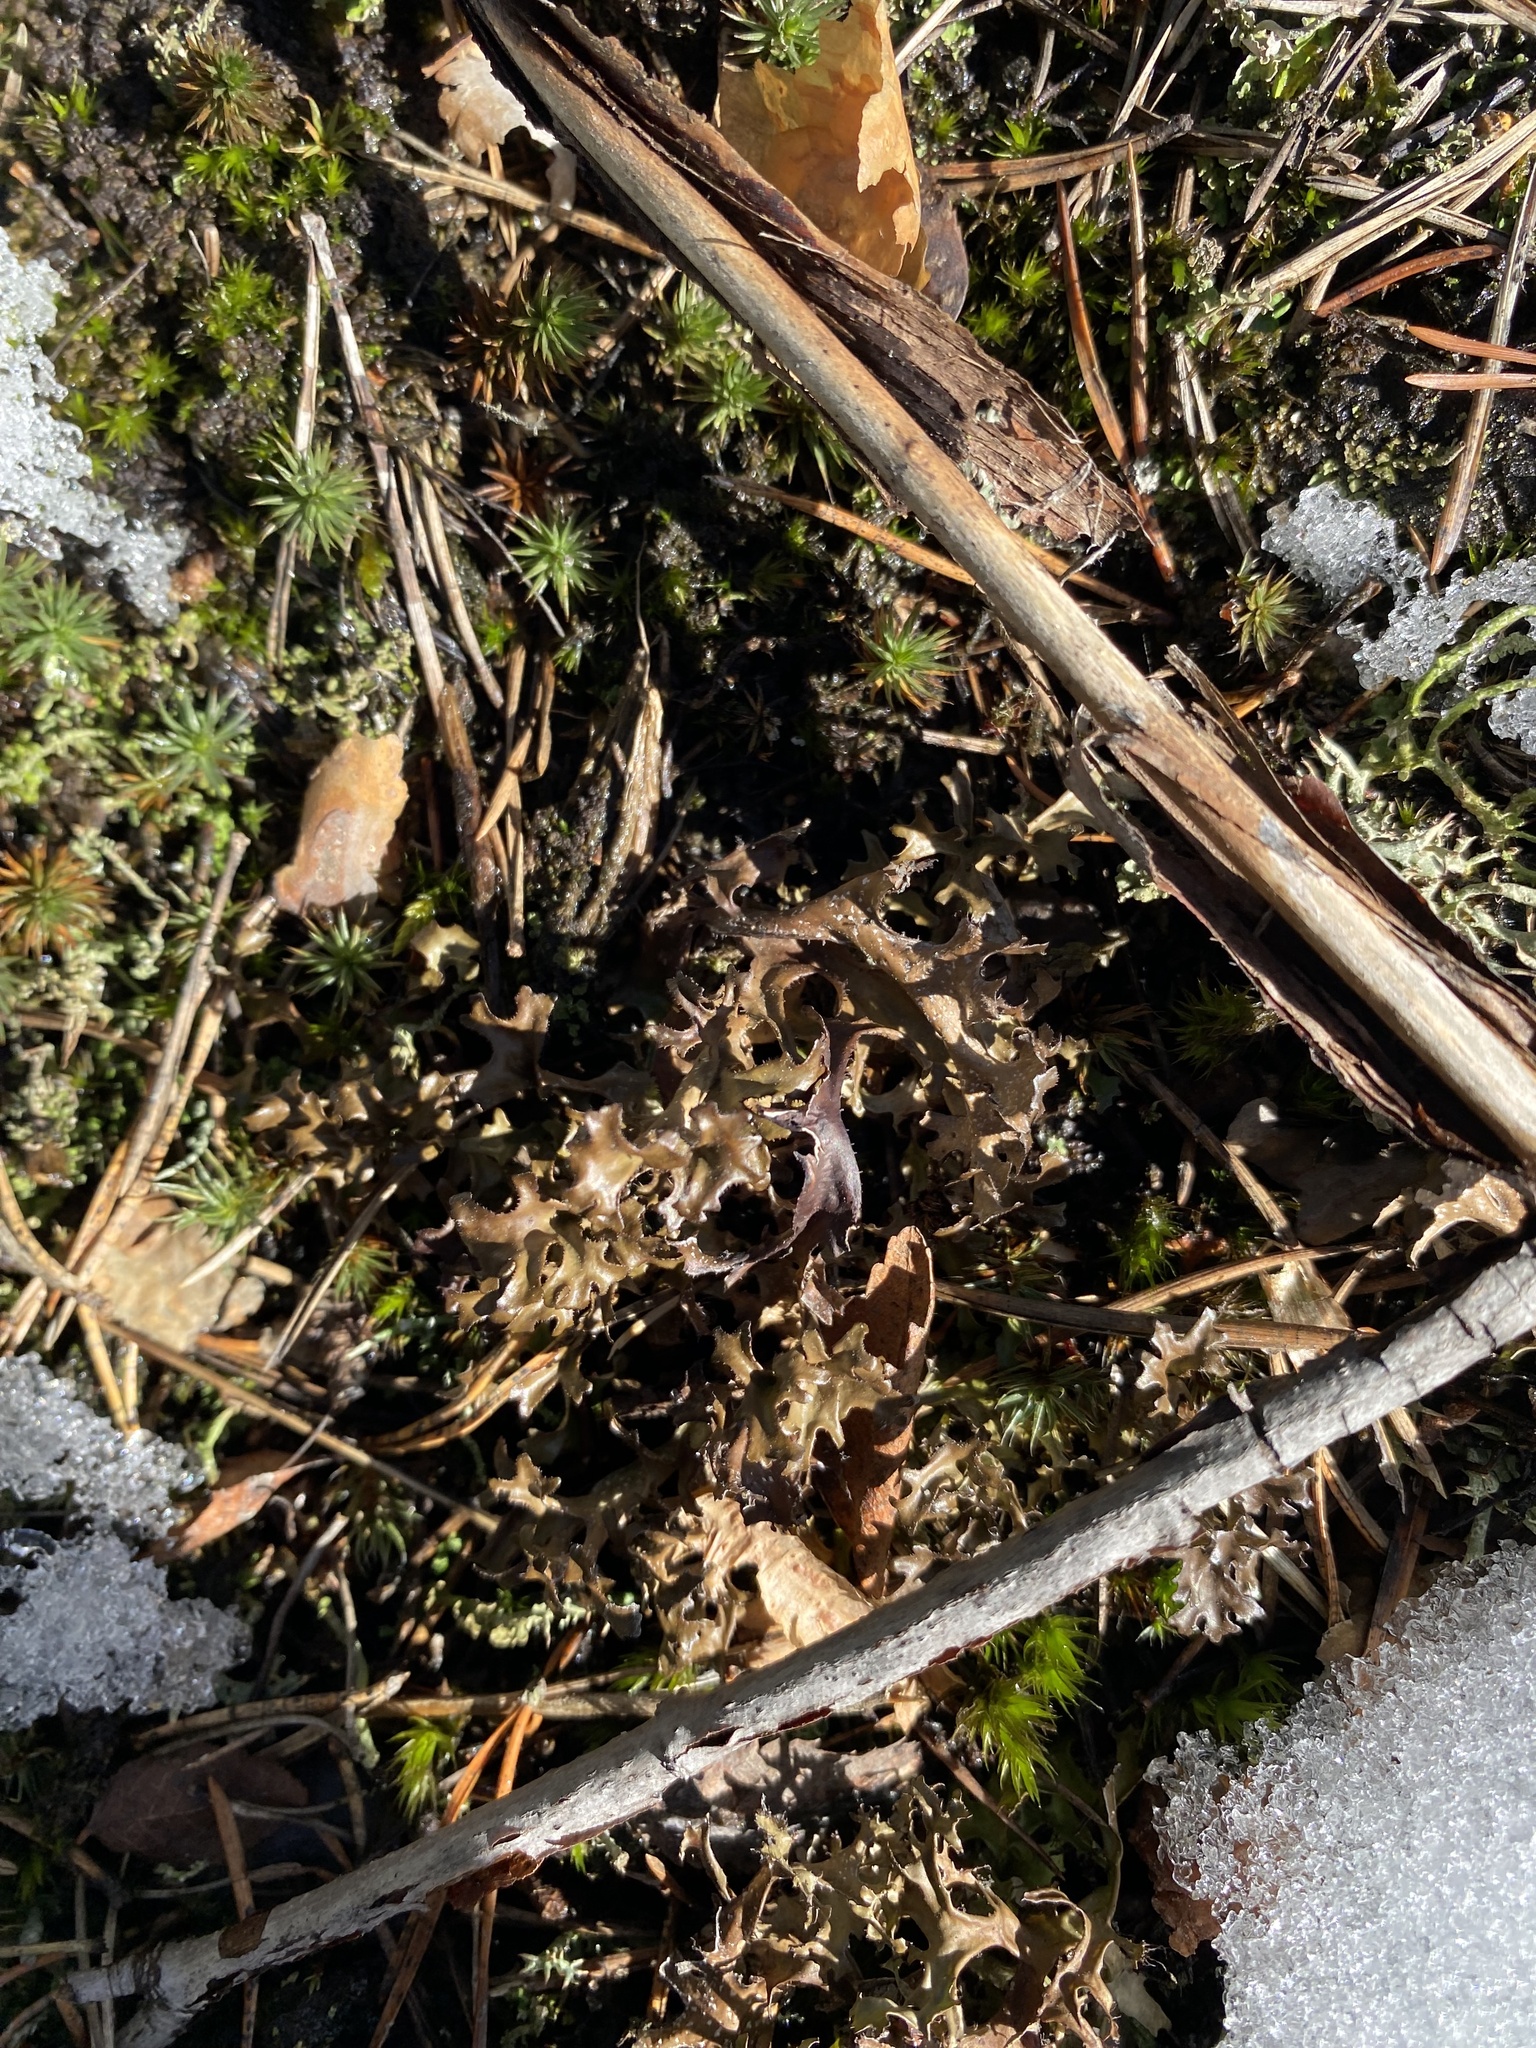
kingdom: Fungi
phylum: Ascomycota
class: Lecanoromycetes
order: Lecanorales
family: Parmeliaceae
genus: Cetraria
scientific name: Cetraria islandica
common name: Iceland lichen
